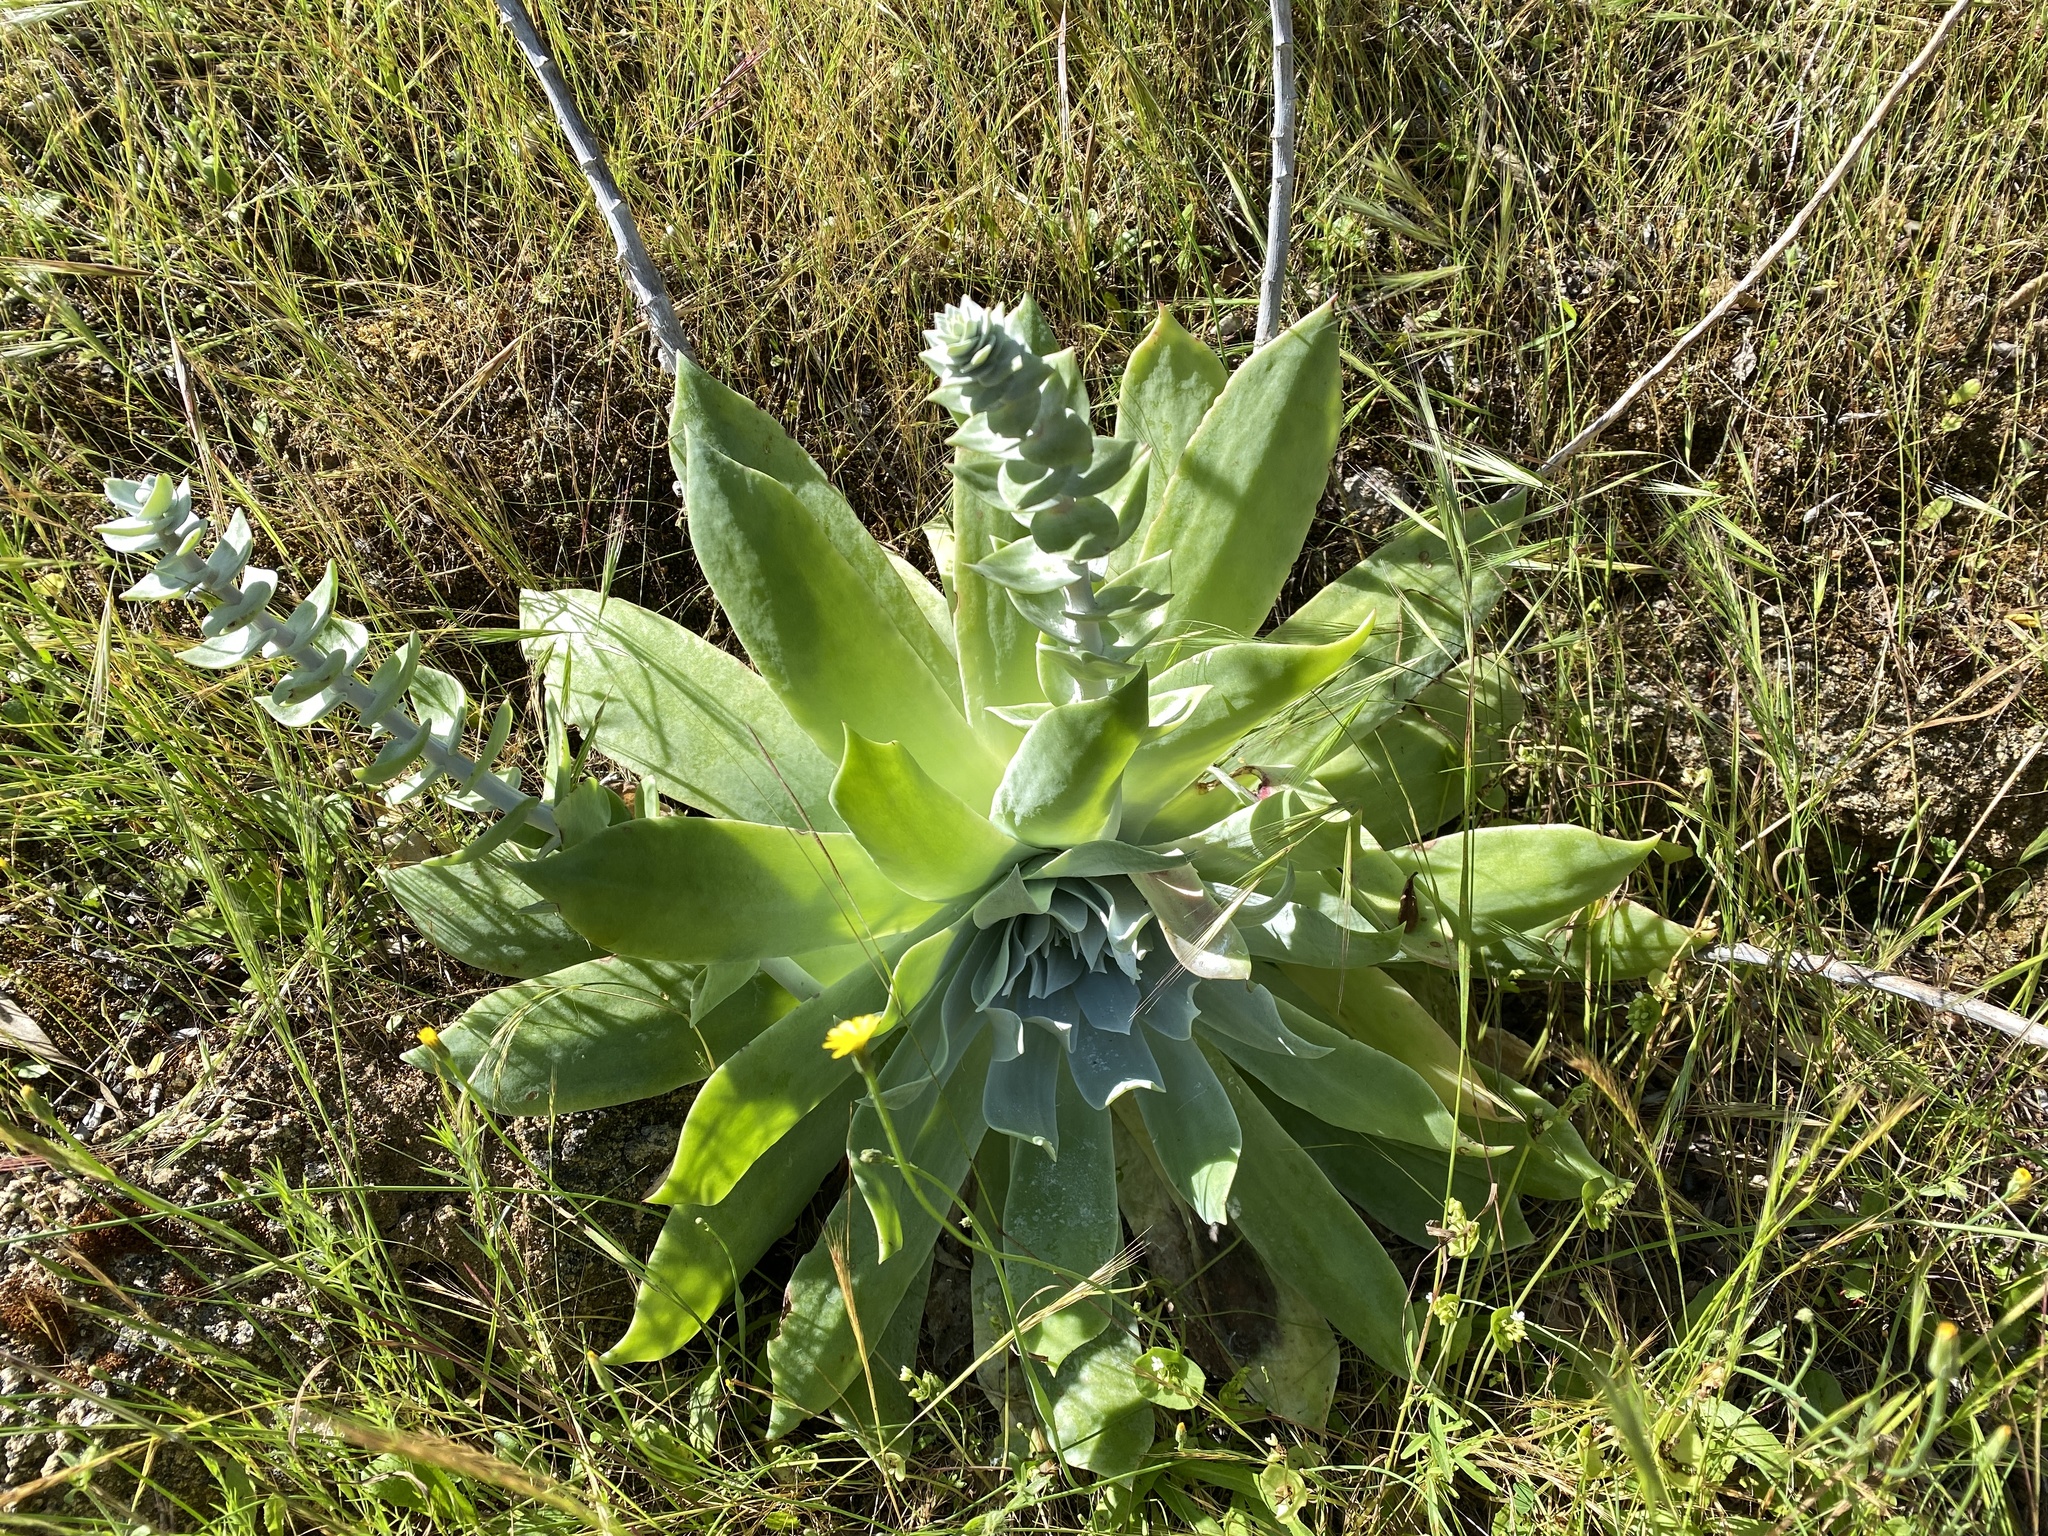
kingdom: Plantae
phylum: Tracheophyta
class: Magnoliopsida
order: Saxifragales
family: Crassulaceae
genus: Dudleya
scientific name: Dudleya pulverulenta
